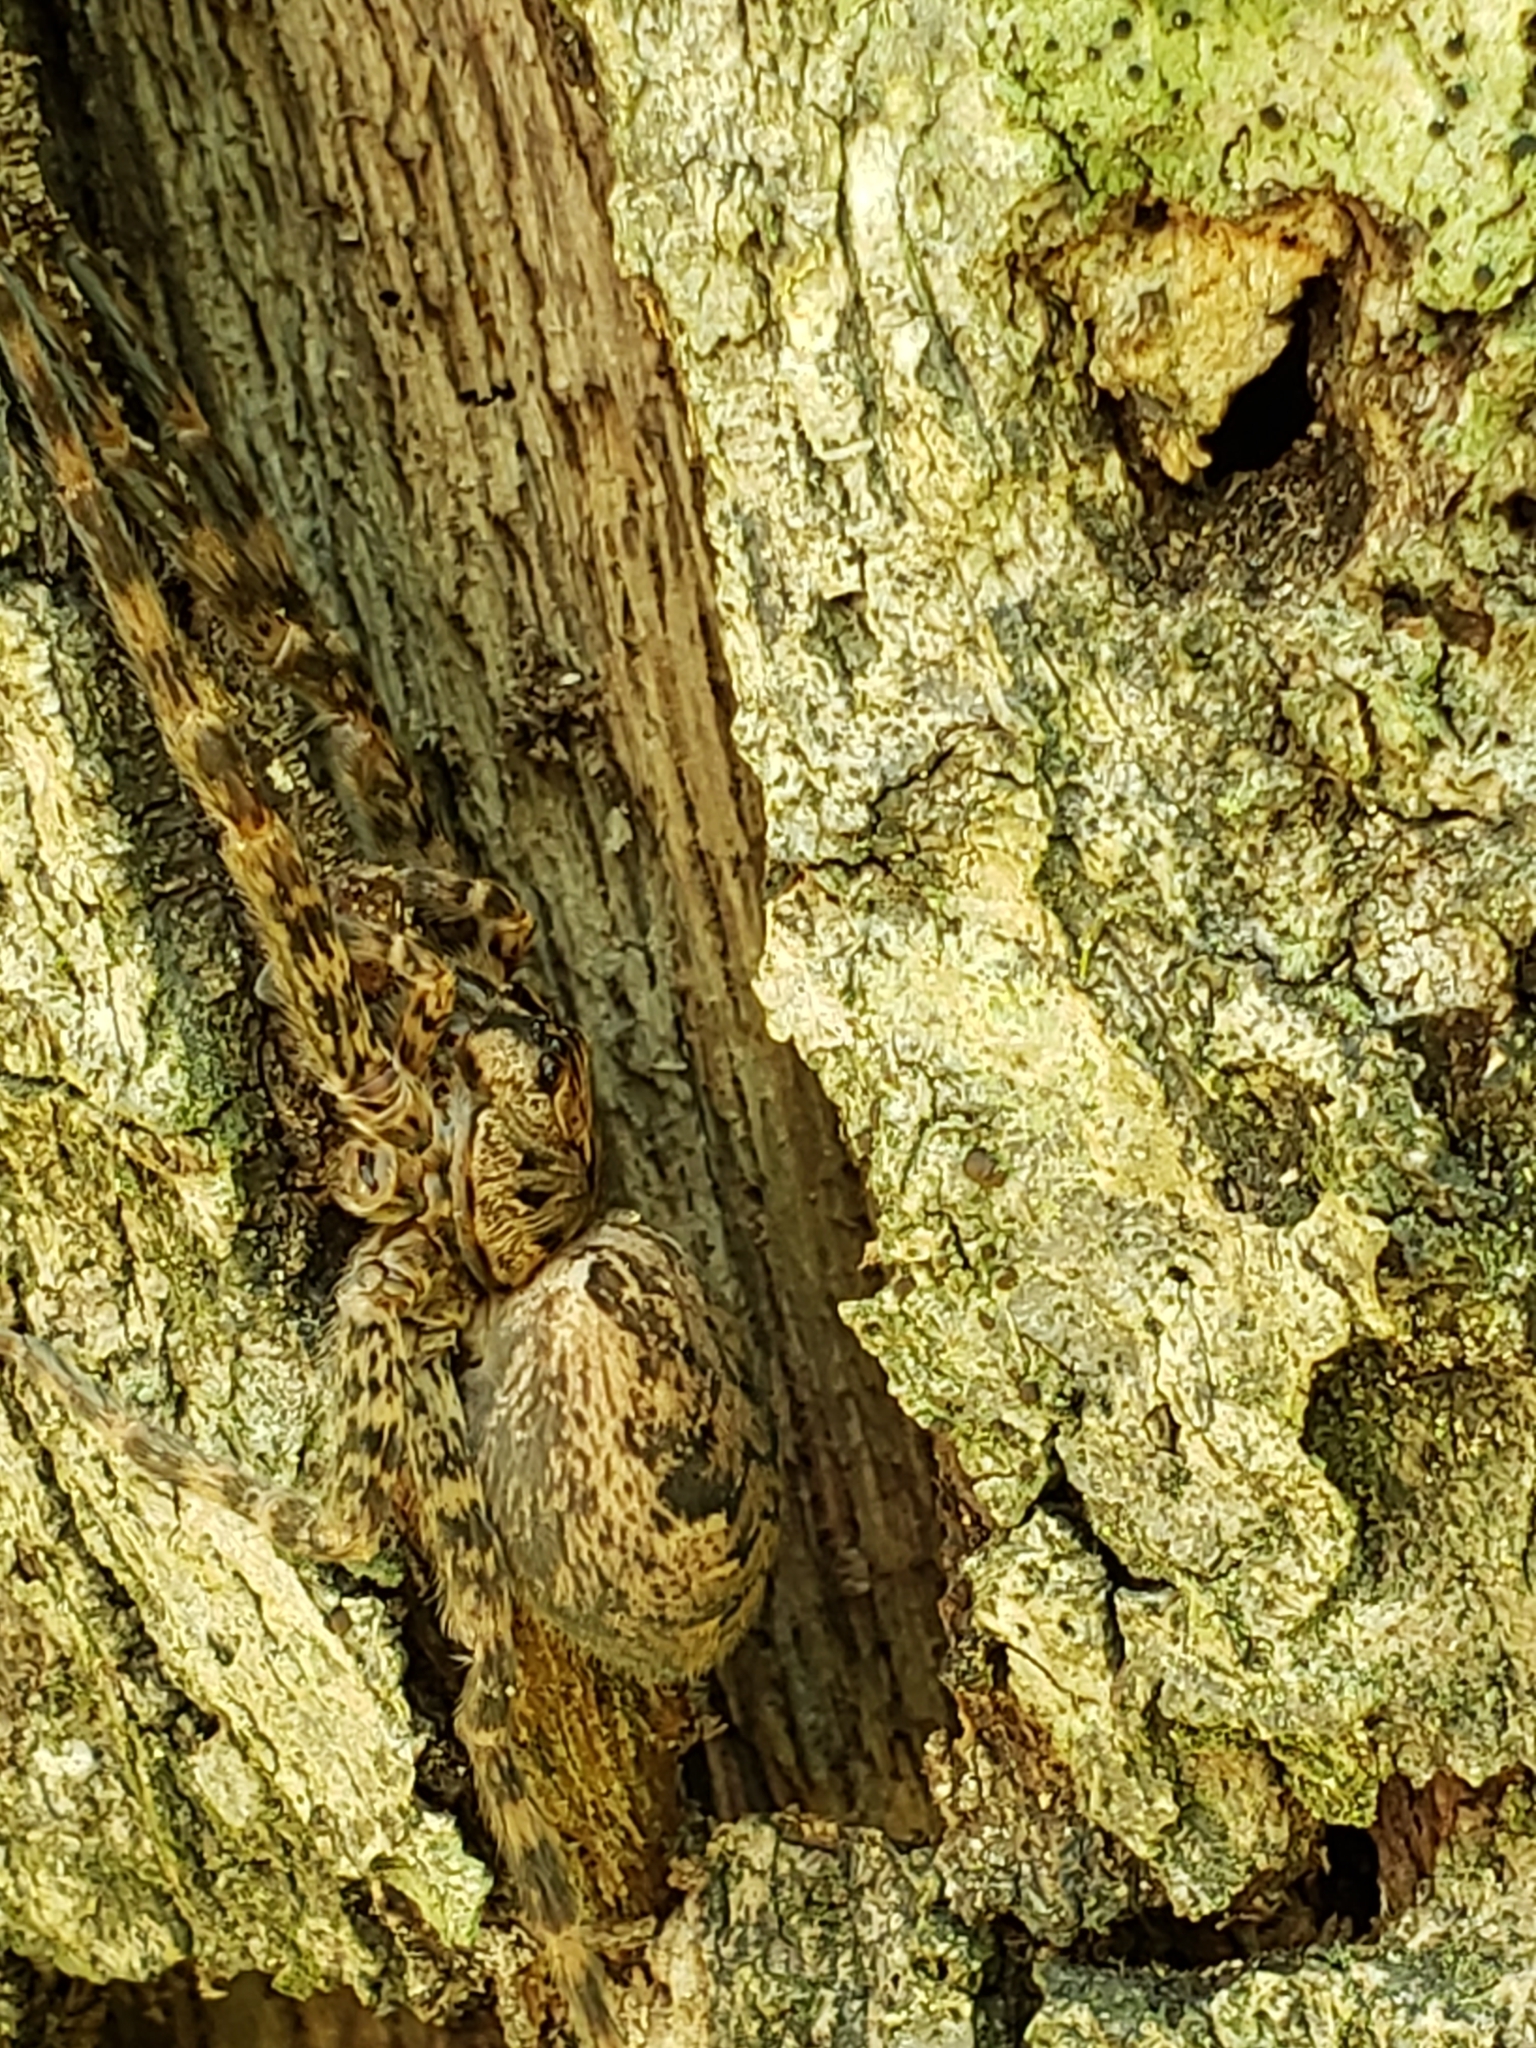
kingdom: Animalia
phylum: Arthropoda
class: Arachnida
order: Araneae
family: Pisauridae
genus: Dolomedes
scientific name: Dolomedes tenebrosus
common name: Dark fishing spider
